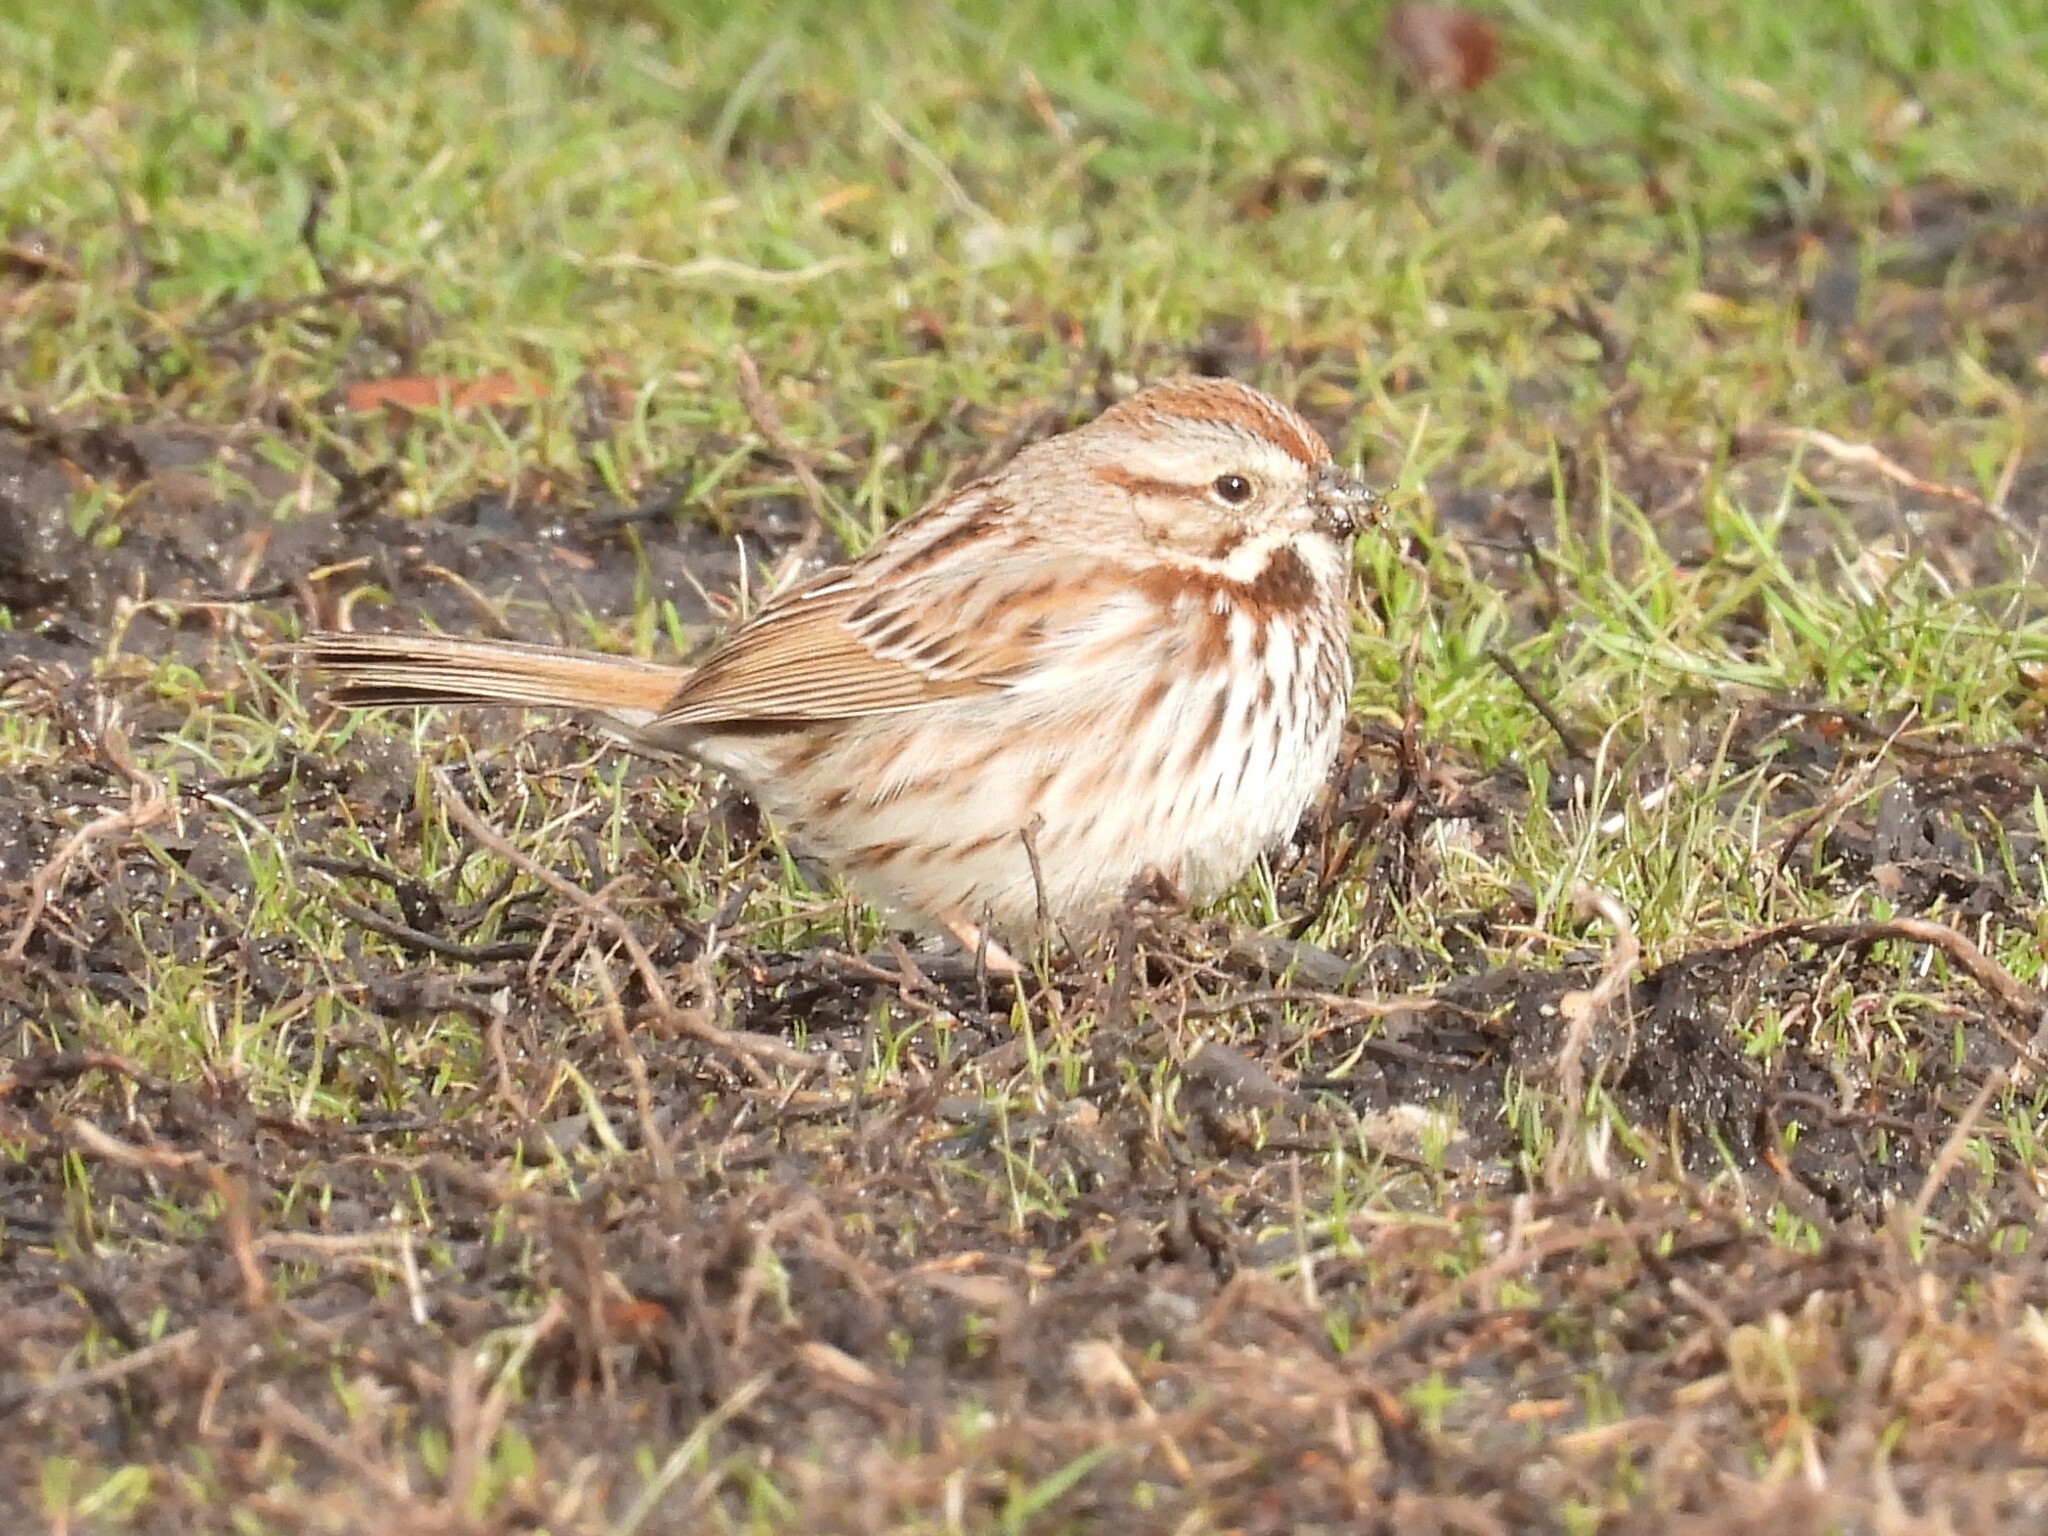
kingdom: Animalia
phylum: Chordata
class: Aves
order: Passeriformes
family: Passerellidae
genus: Melospiza
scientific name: Melospiza melodia
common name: Song sparrow
